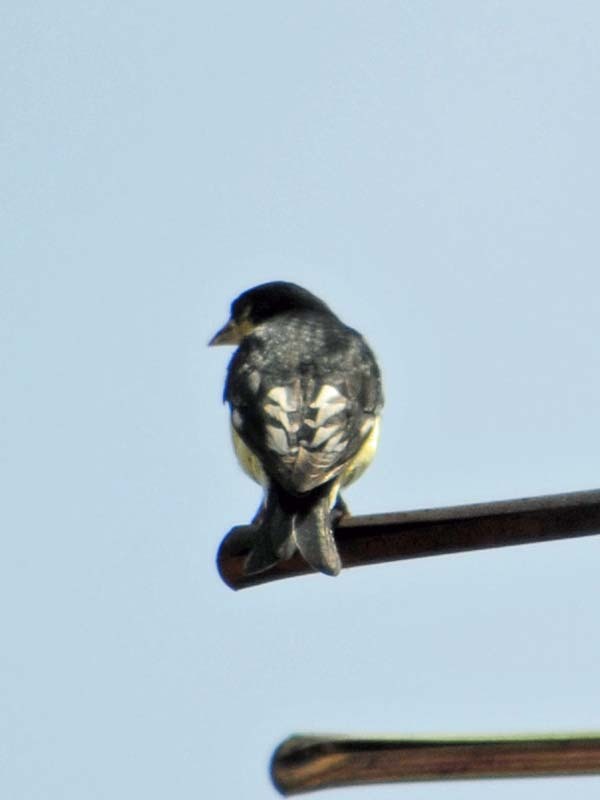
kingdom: Animalia
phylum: Chordata
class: Aves
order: Passeriformes
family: Fringillidae
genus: Spinus
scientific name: Spinus psaltria
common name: Lesser goldfinch
